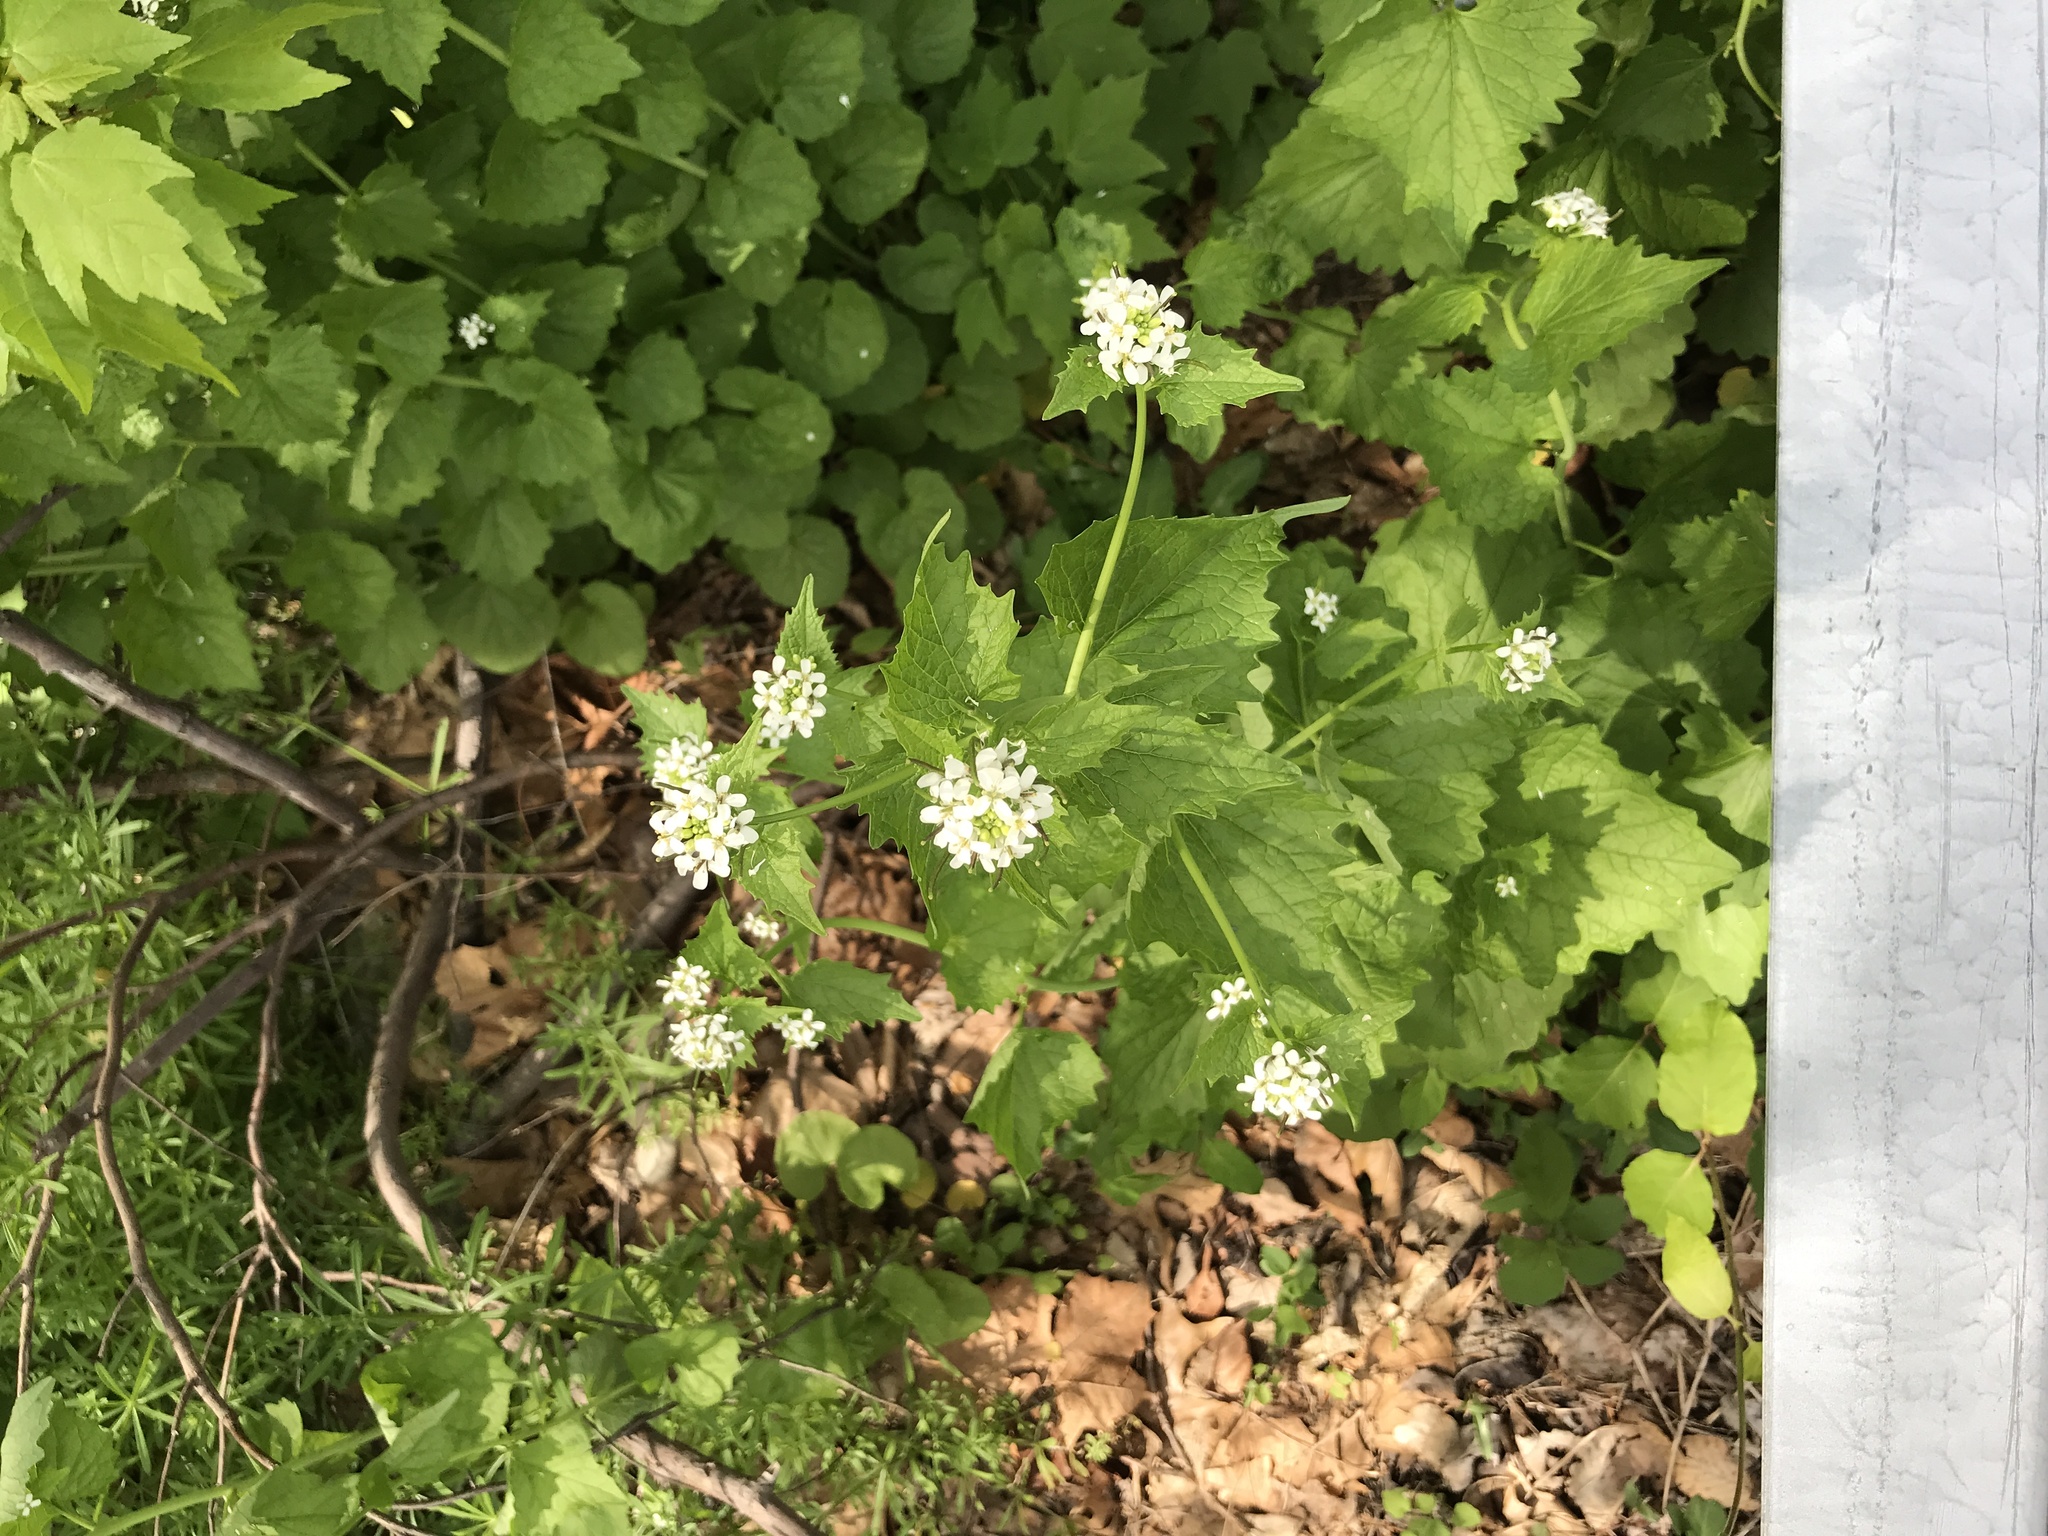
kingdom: Plantae
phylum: Tracheophyta
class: Magnoliopsida
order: Brassicales
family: Brassicaceae
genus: Alliaria
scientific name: Alliaria petiolata
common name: Garlic mustard
